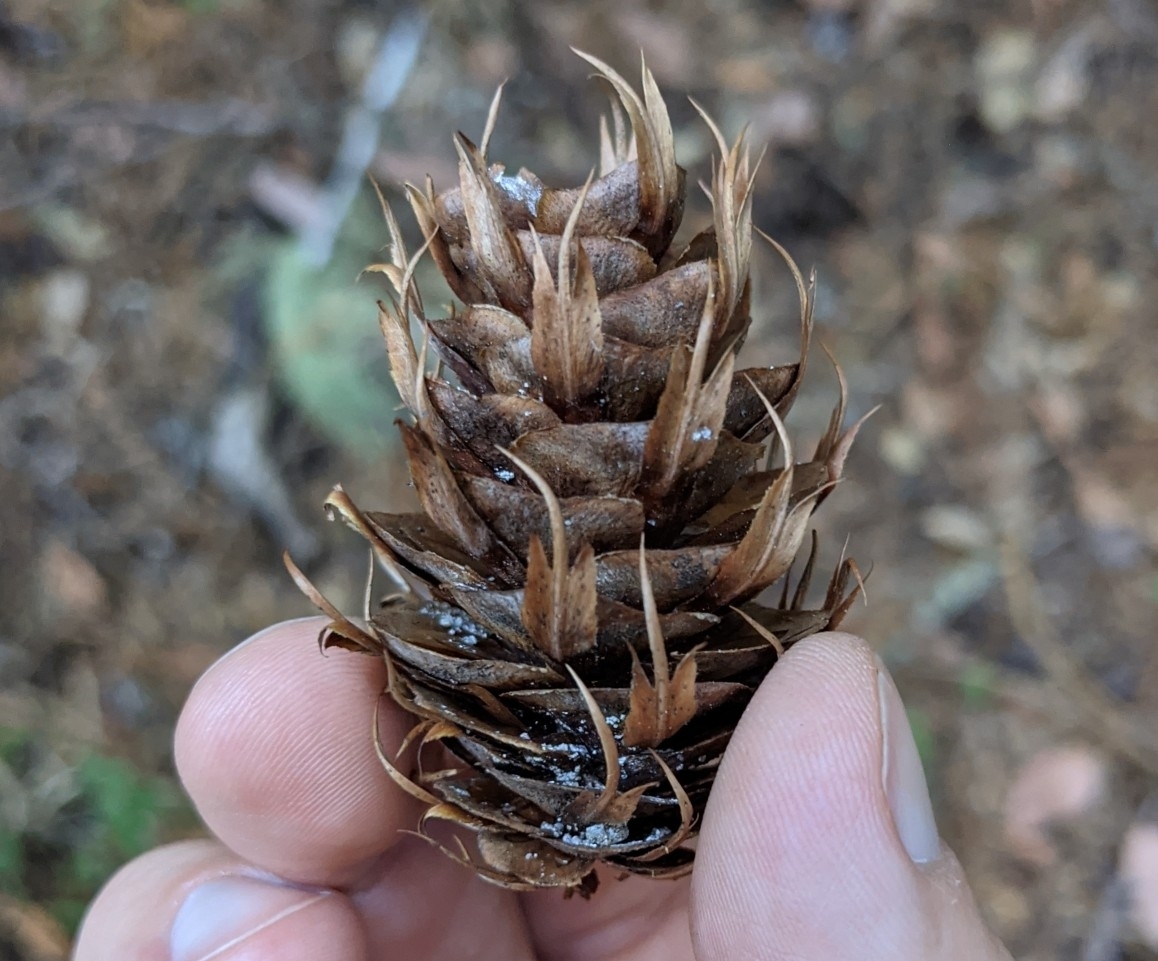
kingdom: Plantae
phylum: Tracheophyta
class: Pinopsida
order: Pinales
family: Pinaceae
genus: Pseudotsuga
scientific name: Pseudotsuga menziesii
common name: Douglas fir
